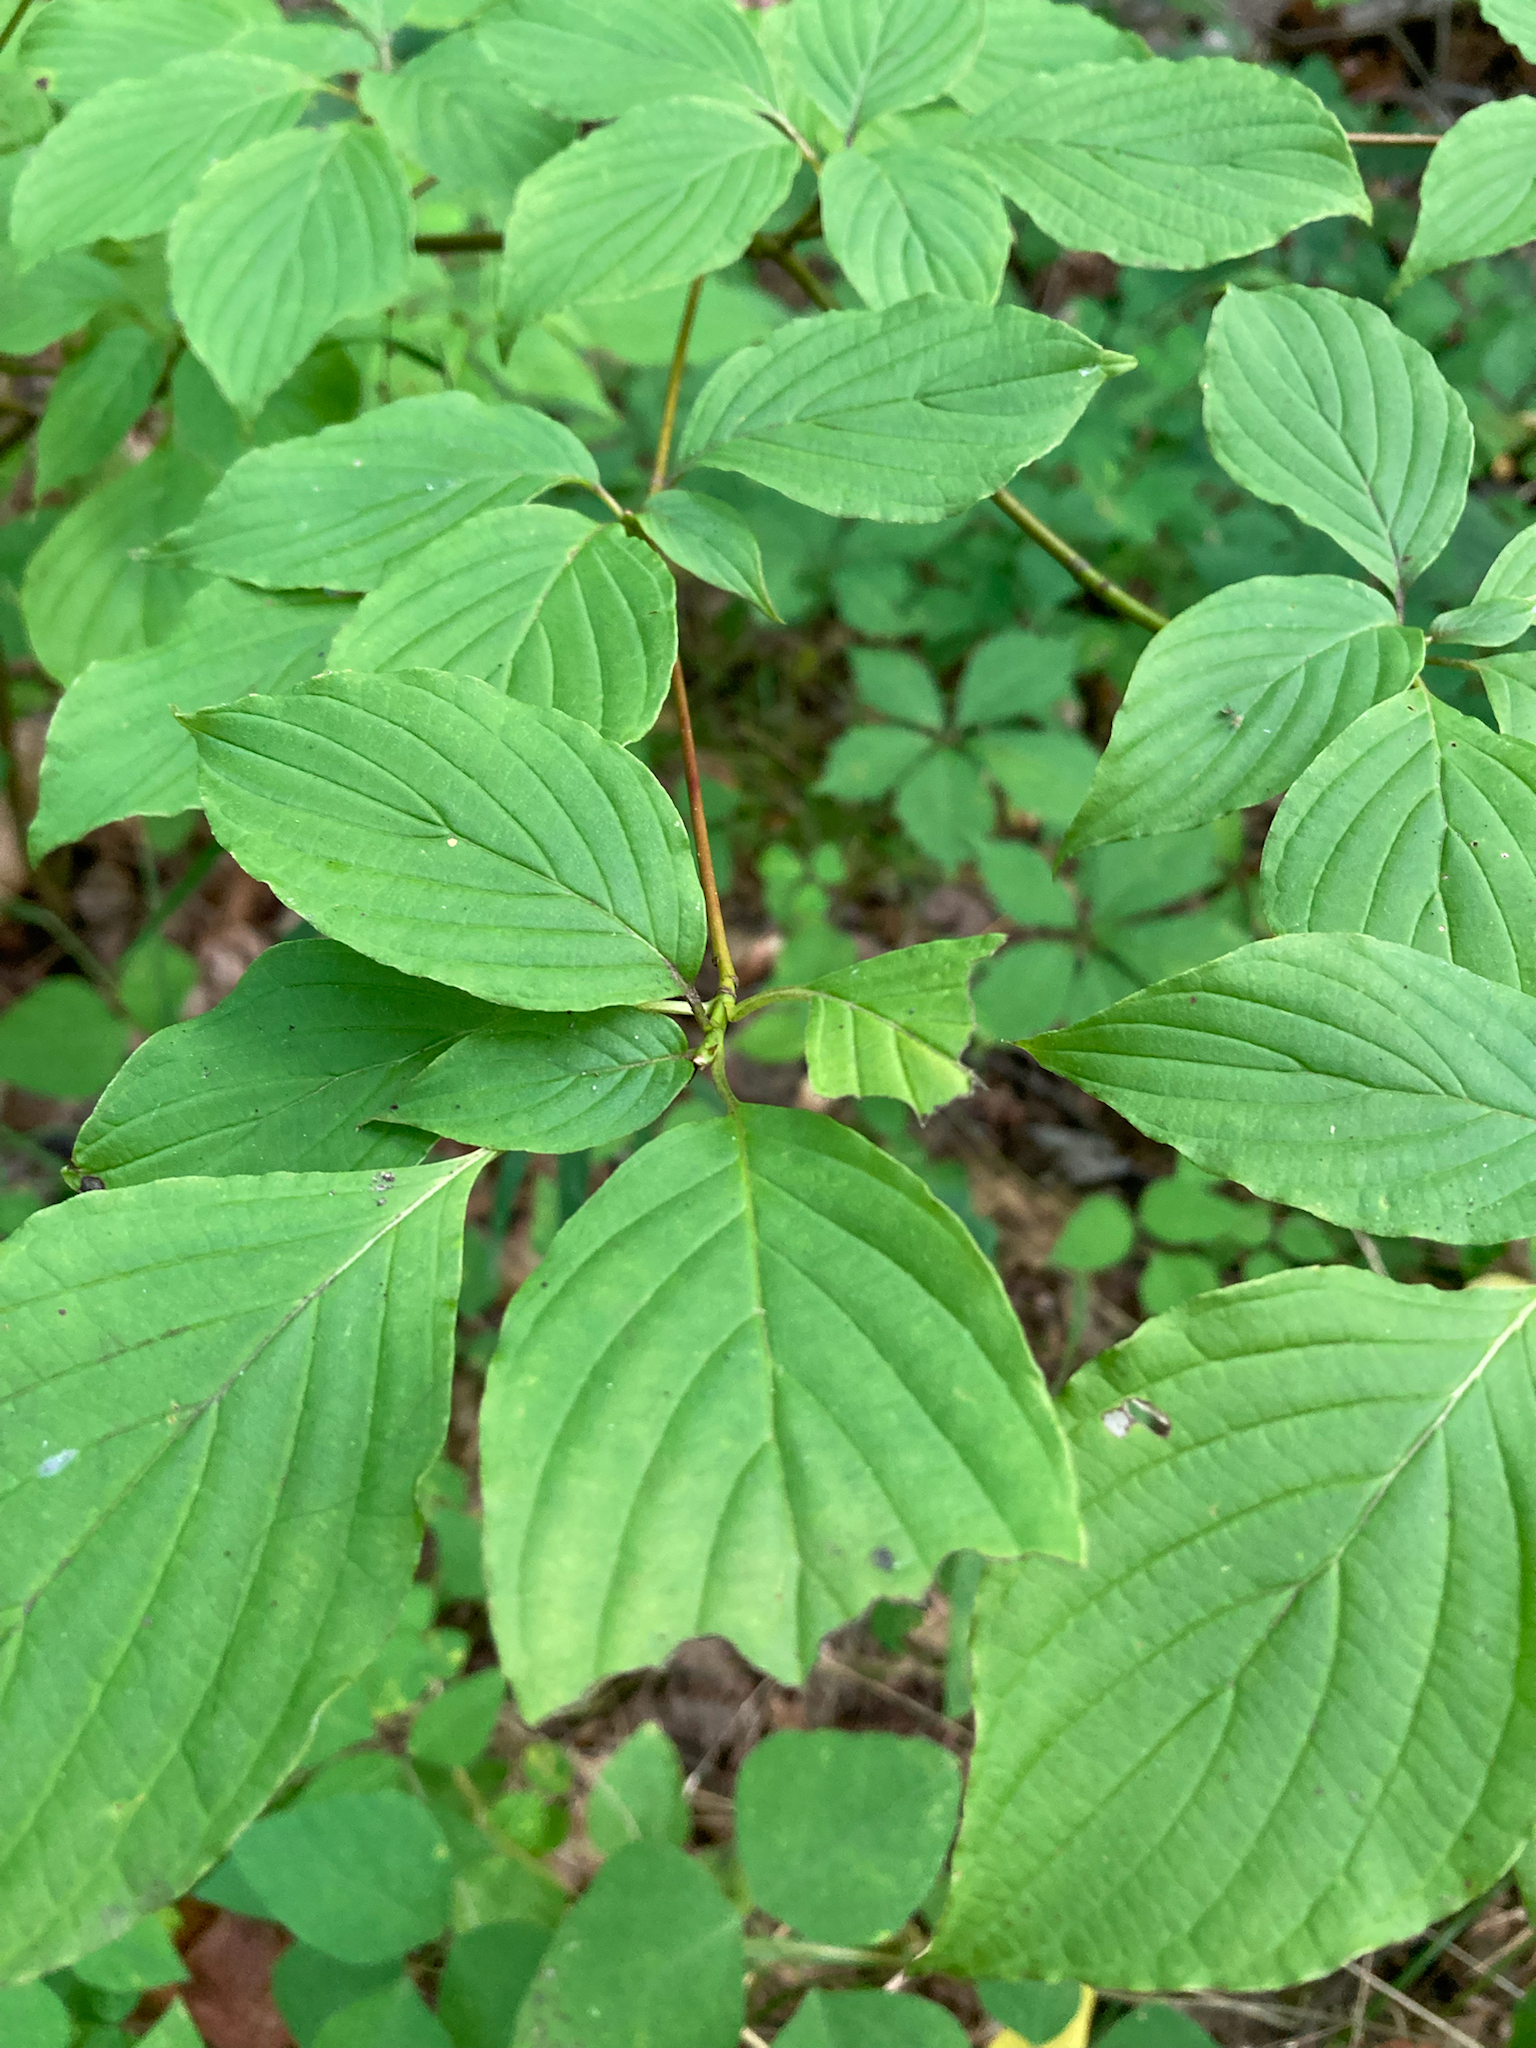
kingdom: Plantae
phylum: Tracheophyta
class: Magnoliopsida
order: Cornales
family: Cornaceae
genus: Cornus
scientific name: Cornus alternifolia
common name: Pagoda dogwood
